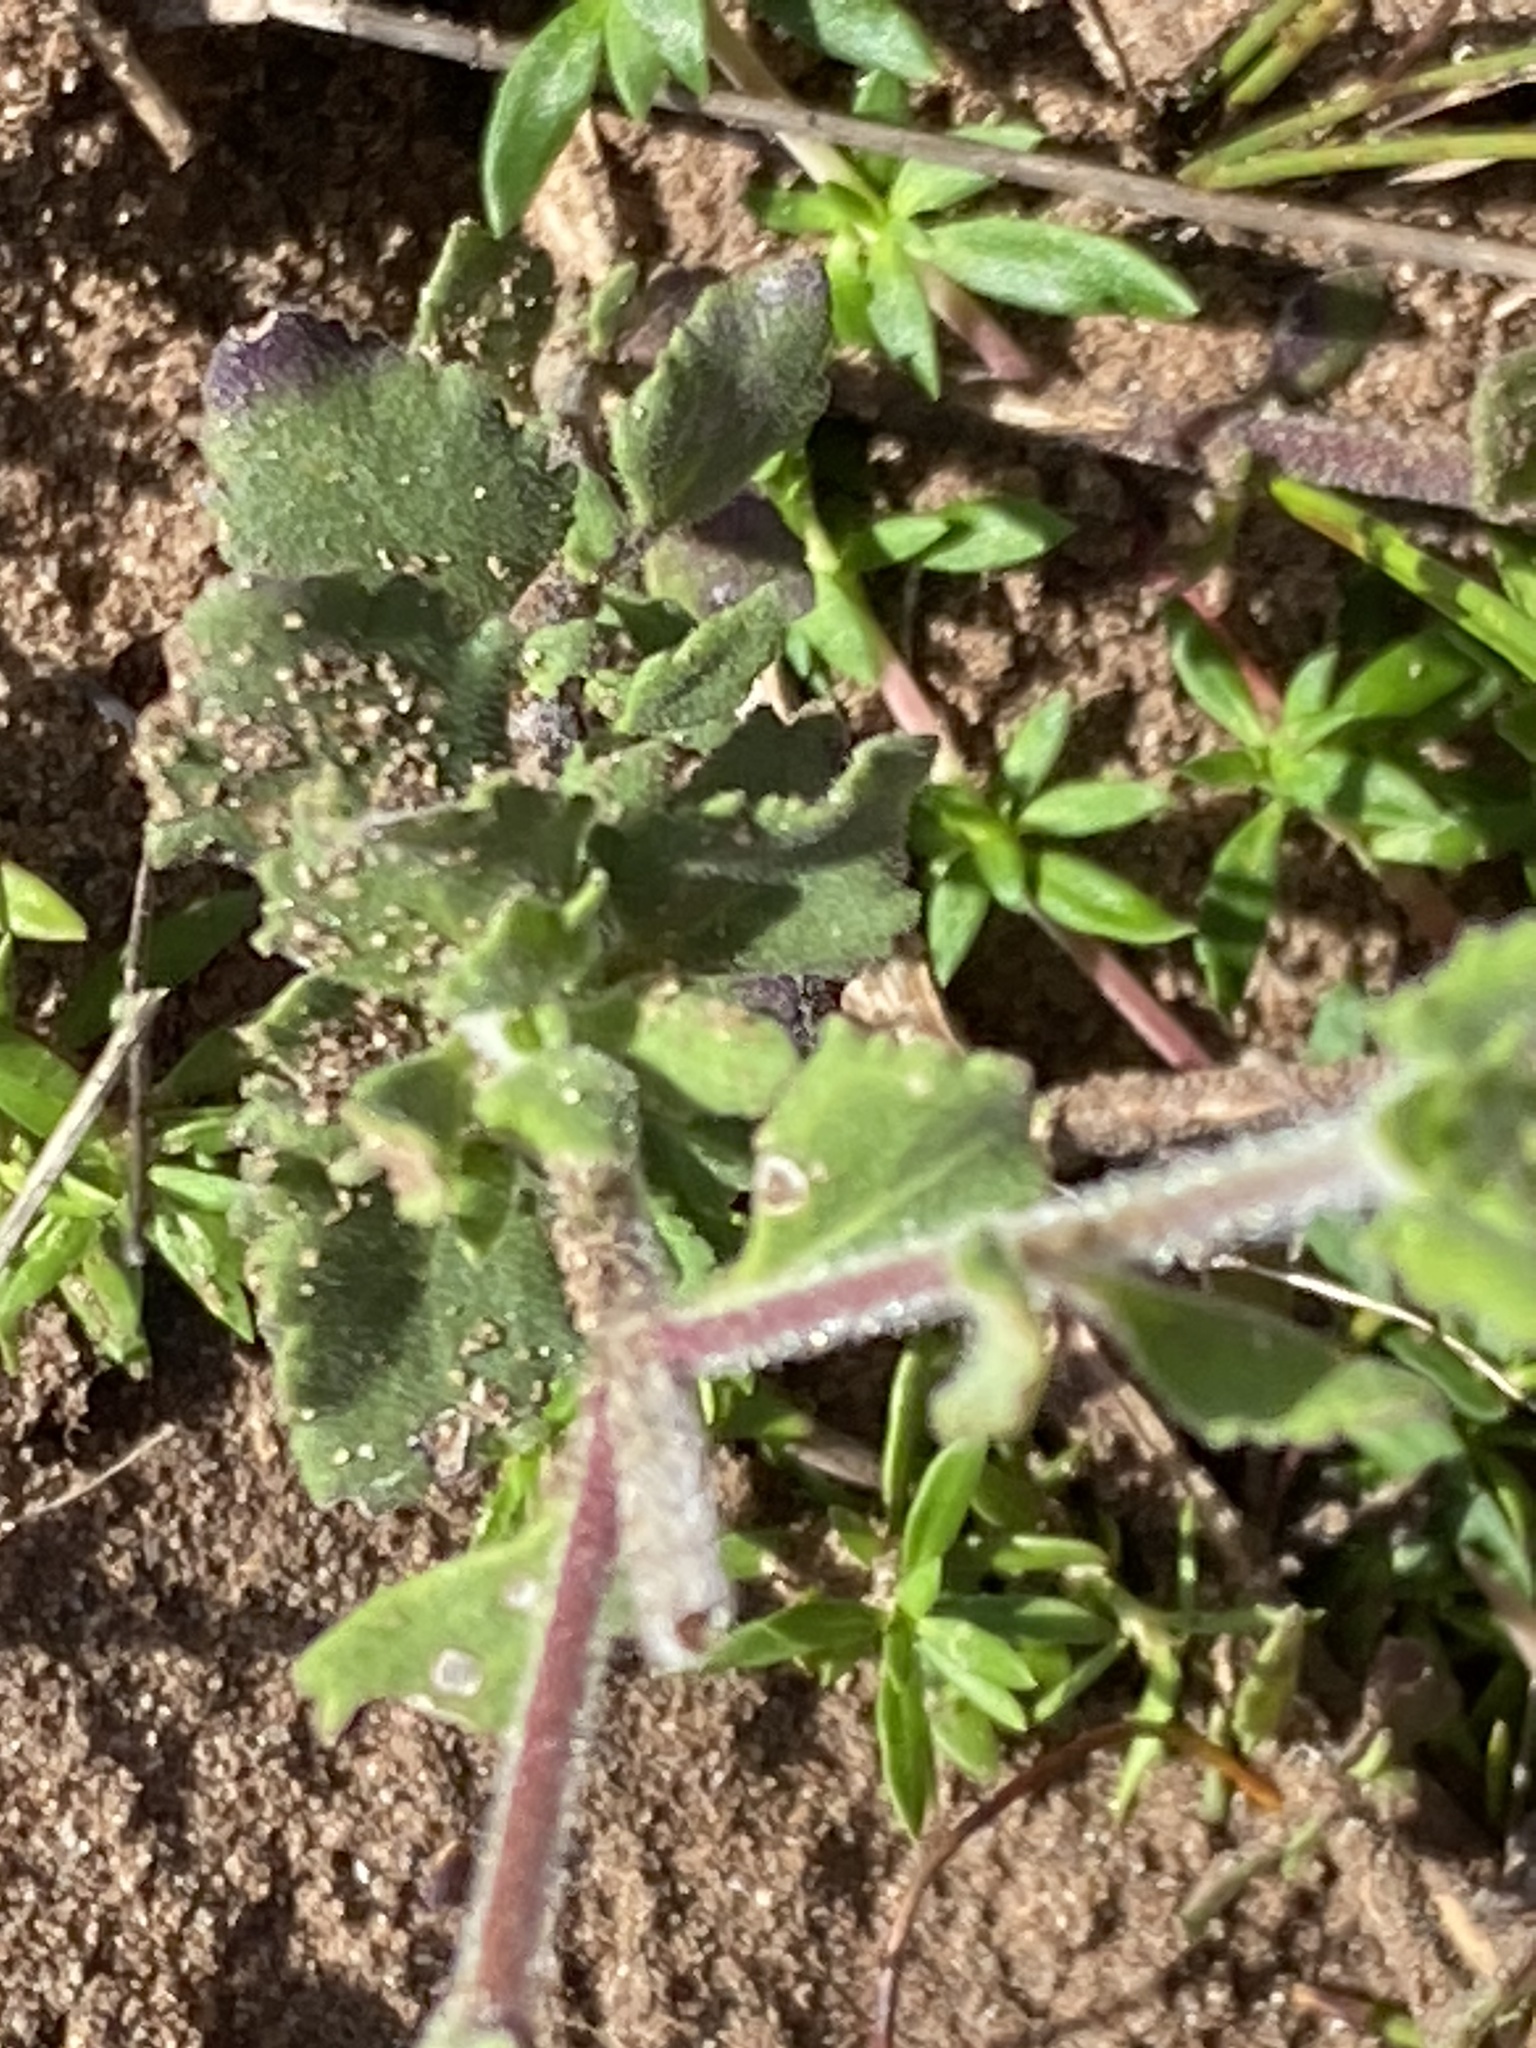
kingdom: Plantae
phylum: Tracheophyta
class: Magnoliopsida
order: Lamiales
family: Scrophulariaceae
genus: Chaenostoma
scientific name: Chaenostoma caeruleum
